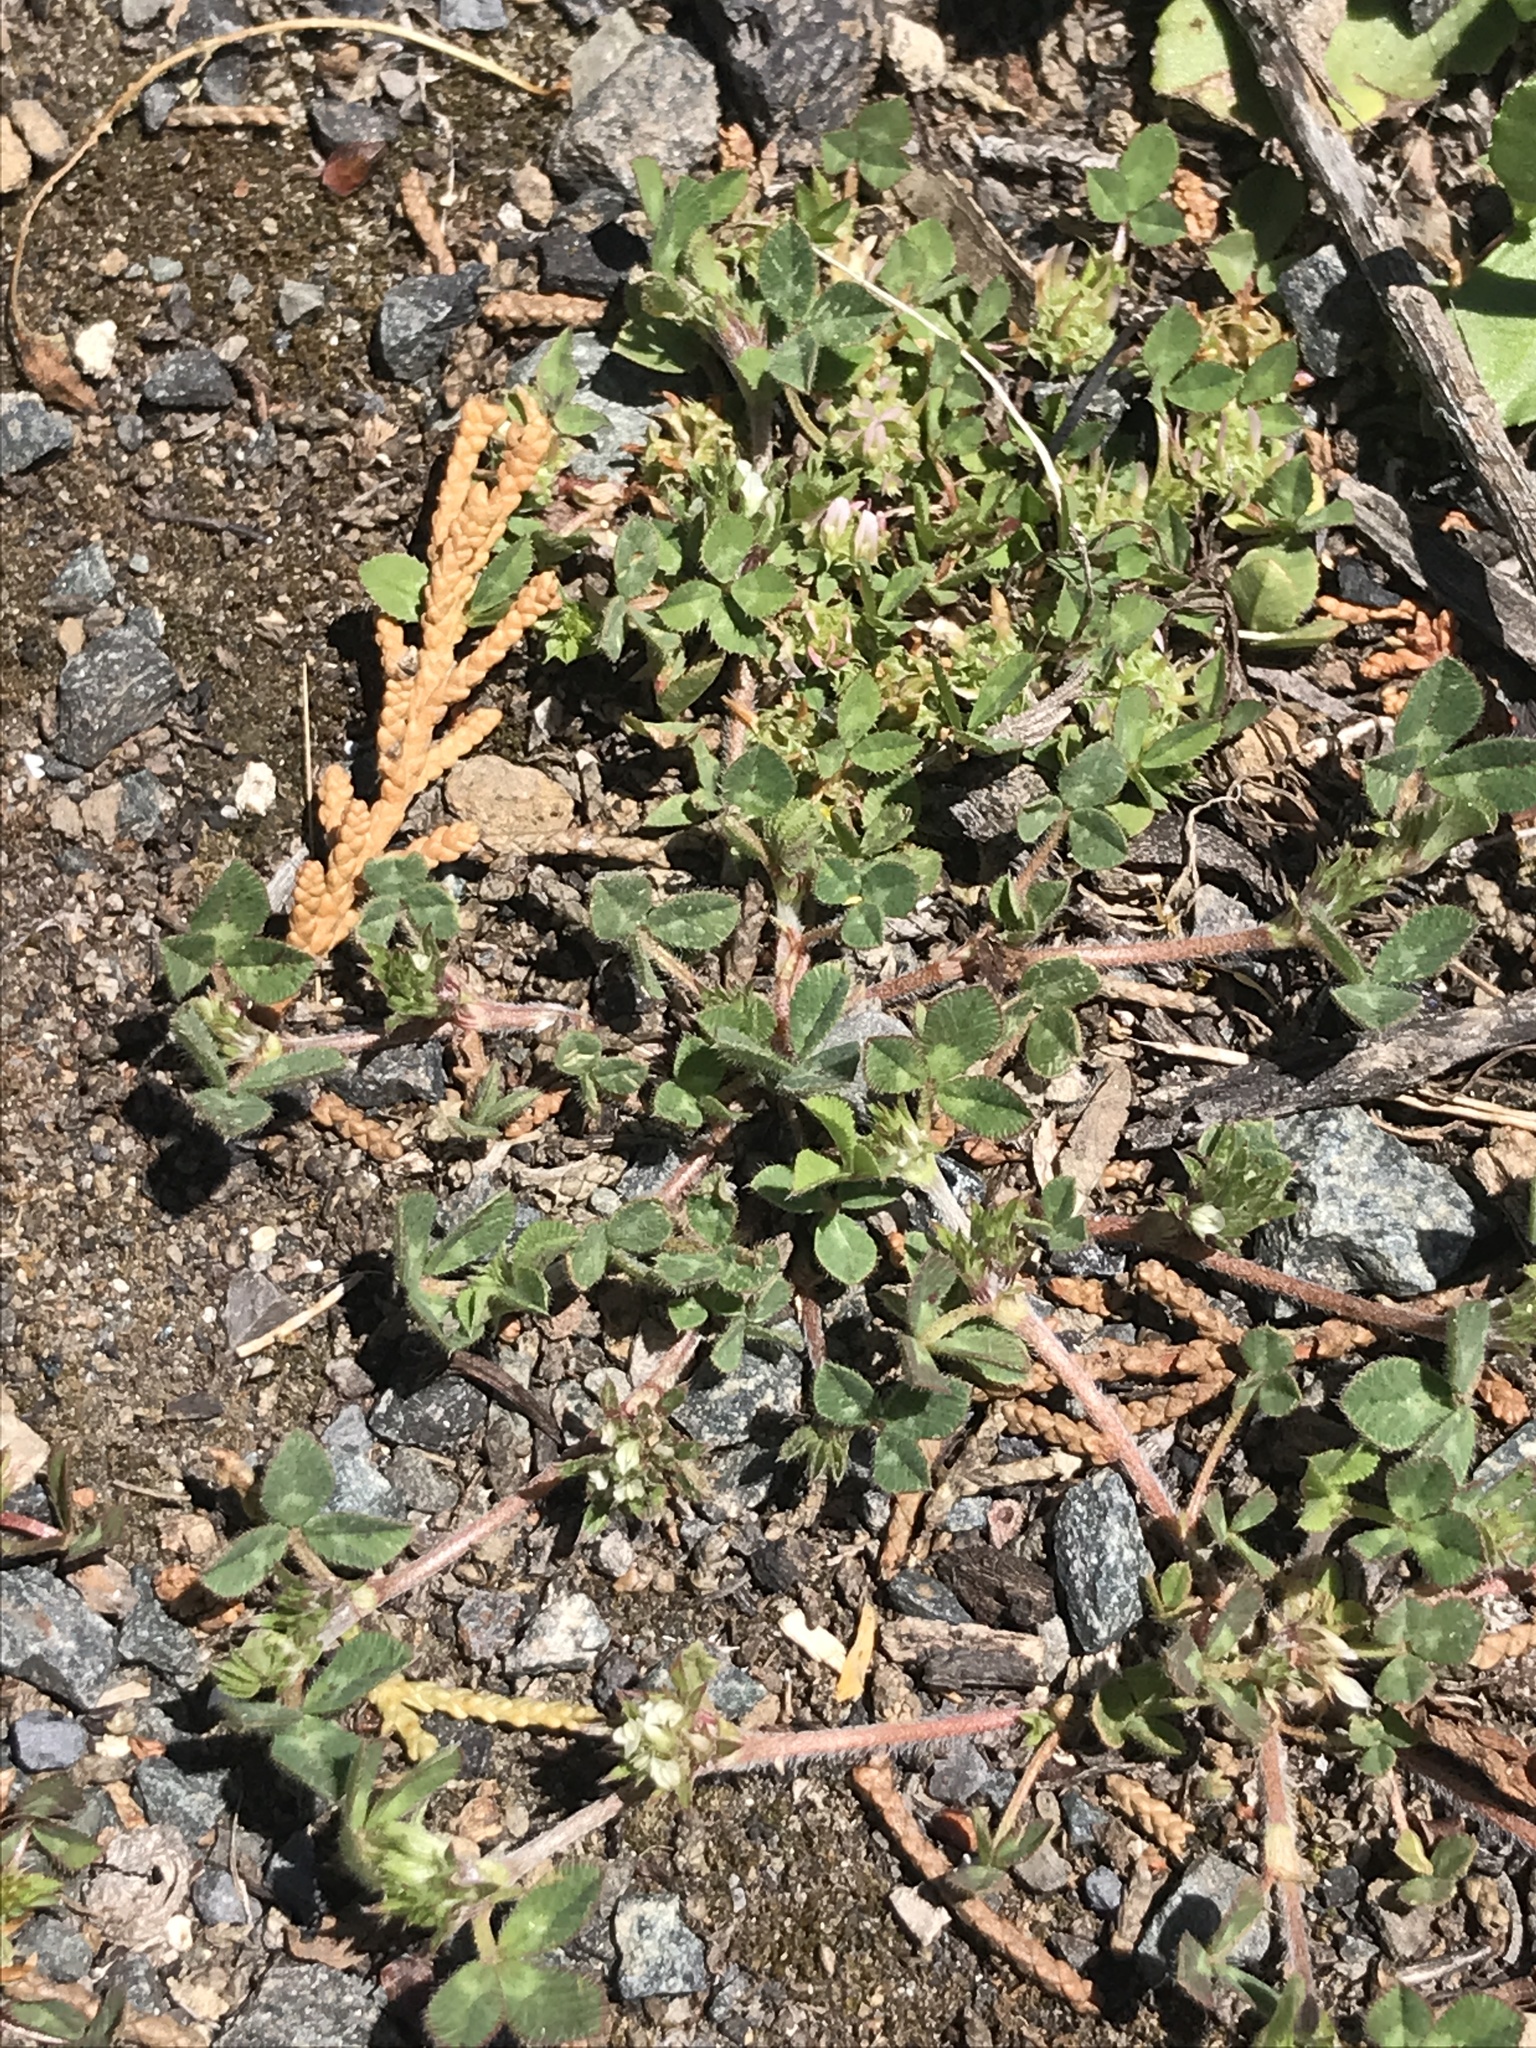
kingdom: Plantae
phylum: Tracheophyta
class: Magnoliopsida
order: Fabales
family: Fabaceae
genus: Trifolium
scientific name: Trifolium glomeratum
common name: Clustered clover
